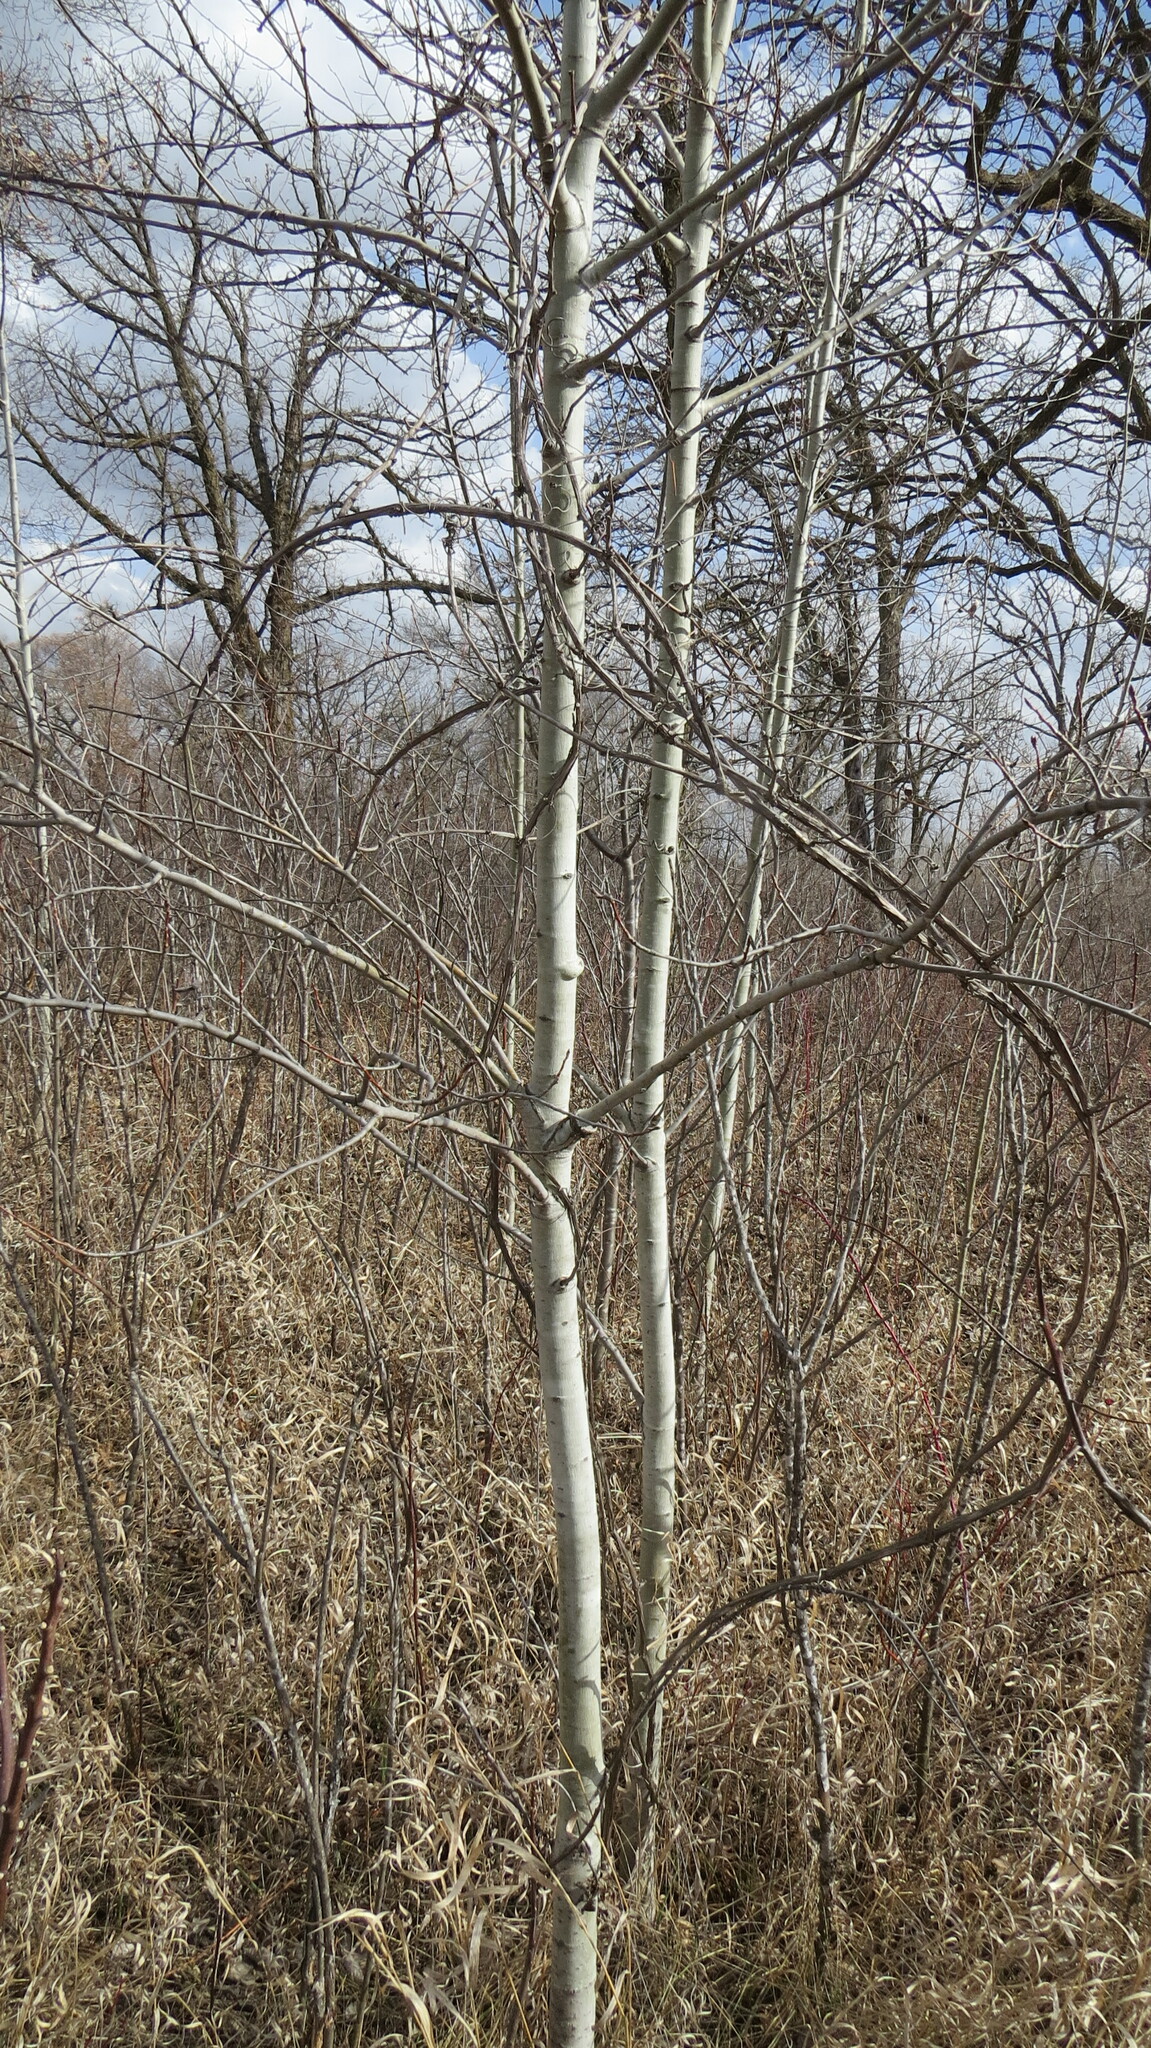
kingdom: Animalia
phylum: Arthropoda
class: Insecta
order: Diptera
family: Agromyzidae
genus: Euhexomyza
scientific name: Euhexomyza schineri
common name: Poplar twiggall fly
